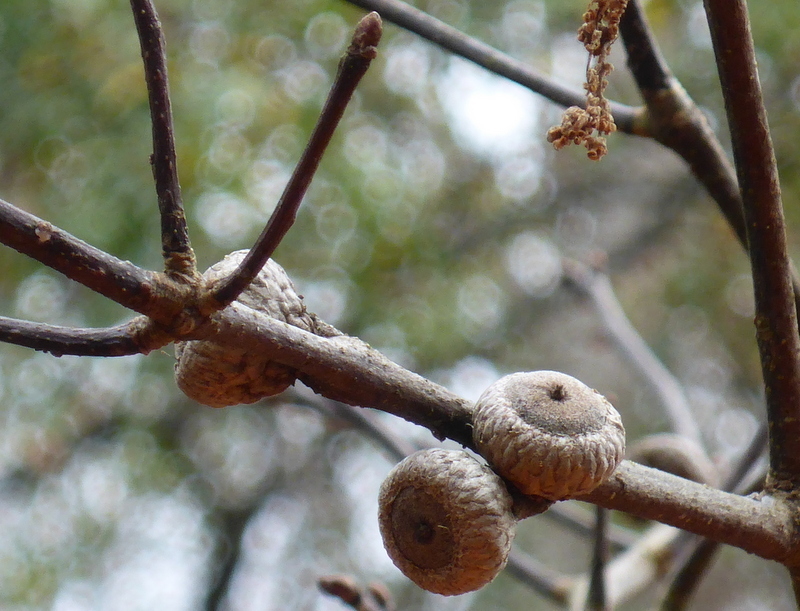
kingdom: Animalia
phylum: Arthropoda
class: Insecta
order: Lepidoptera
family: Saturniidae
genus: Antheraea
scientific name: Antheraea polyphemus
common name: Polyphemus moth
